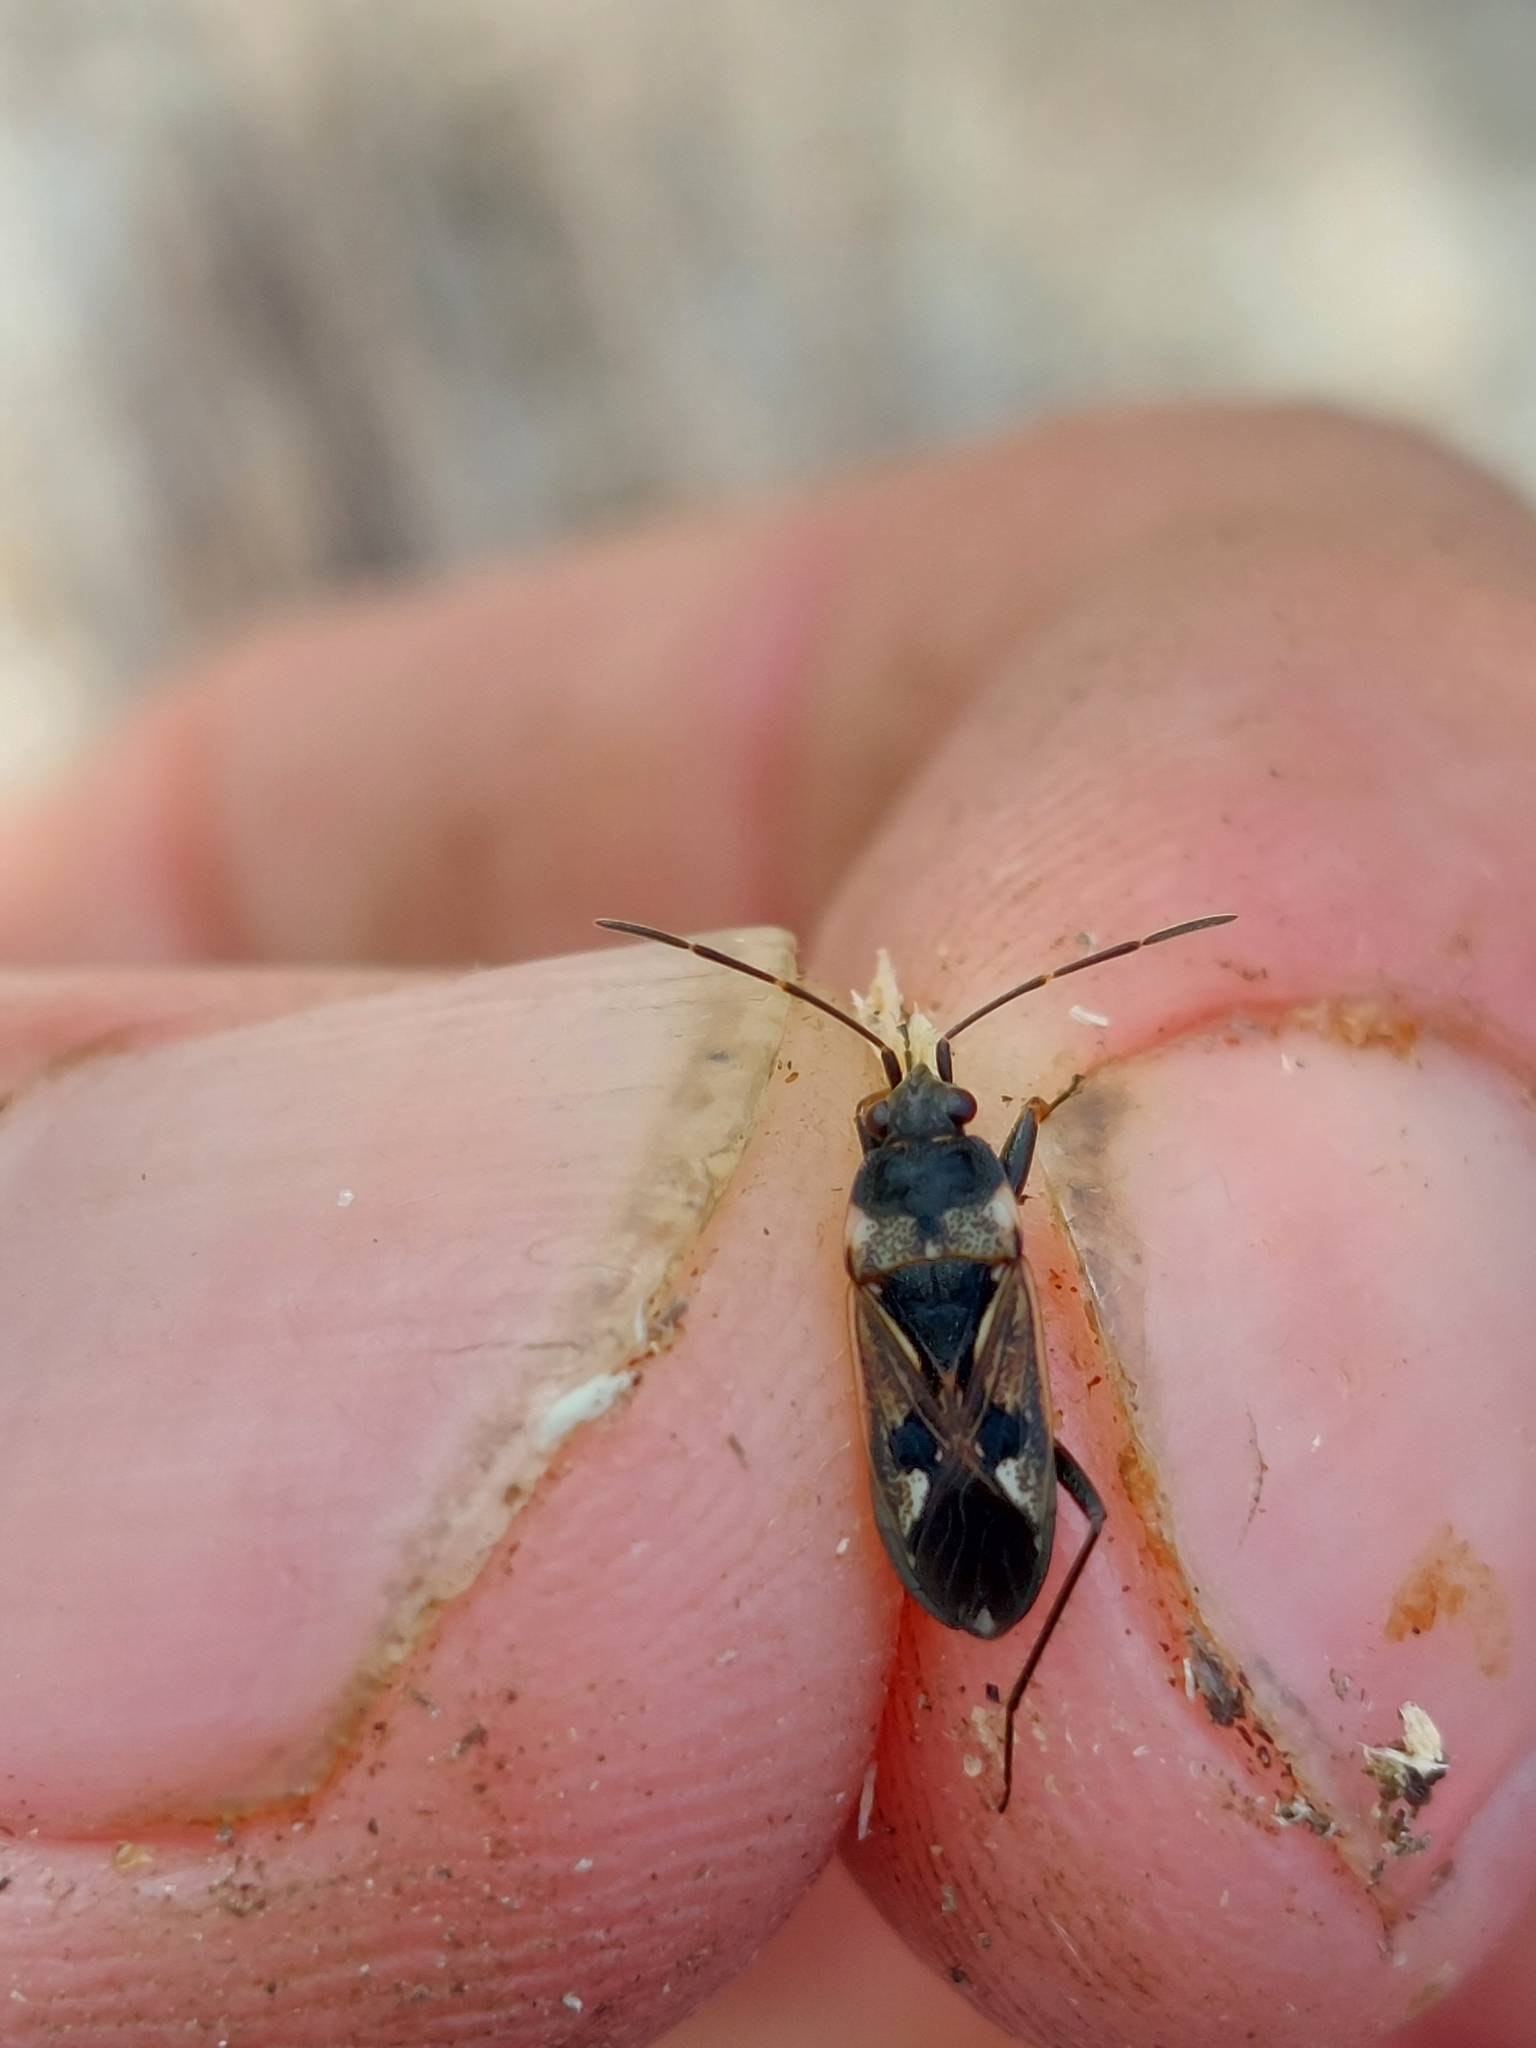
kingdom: Animalia
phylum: Arthropoda
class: Insecta
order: Hemiptera
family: Rhyparochromidae
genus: Rhyparochromus
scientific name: Rhyparochromus vulgaris
